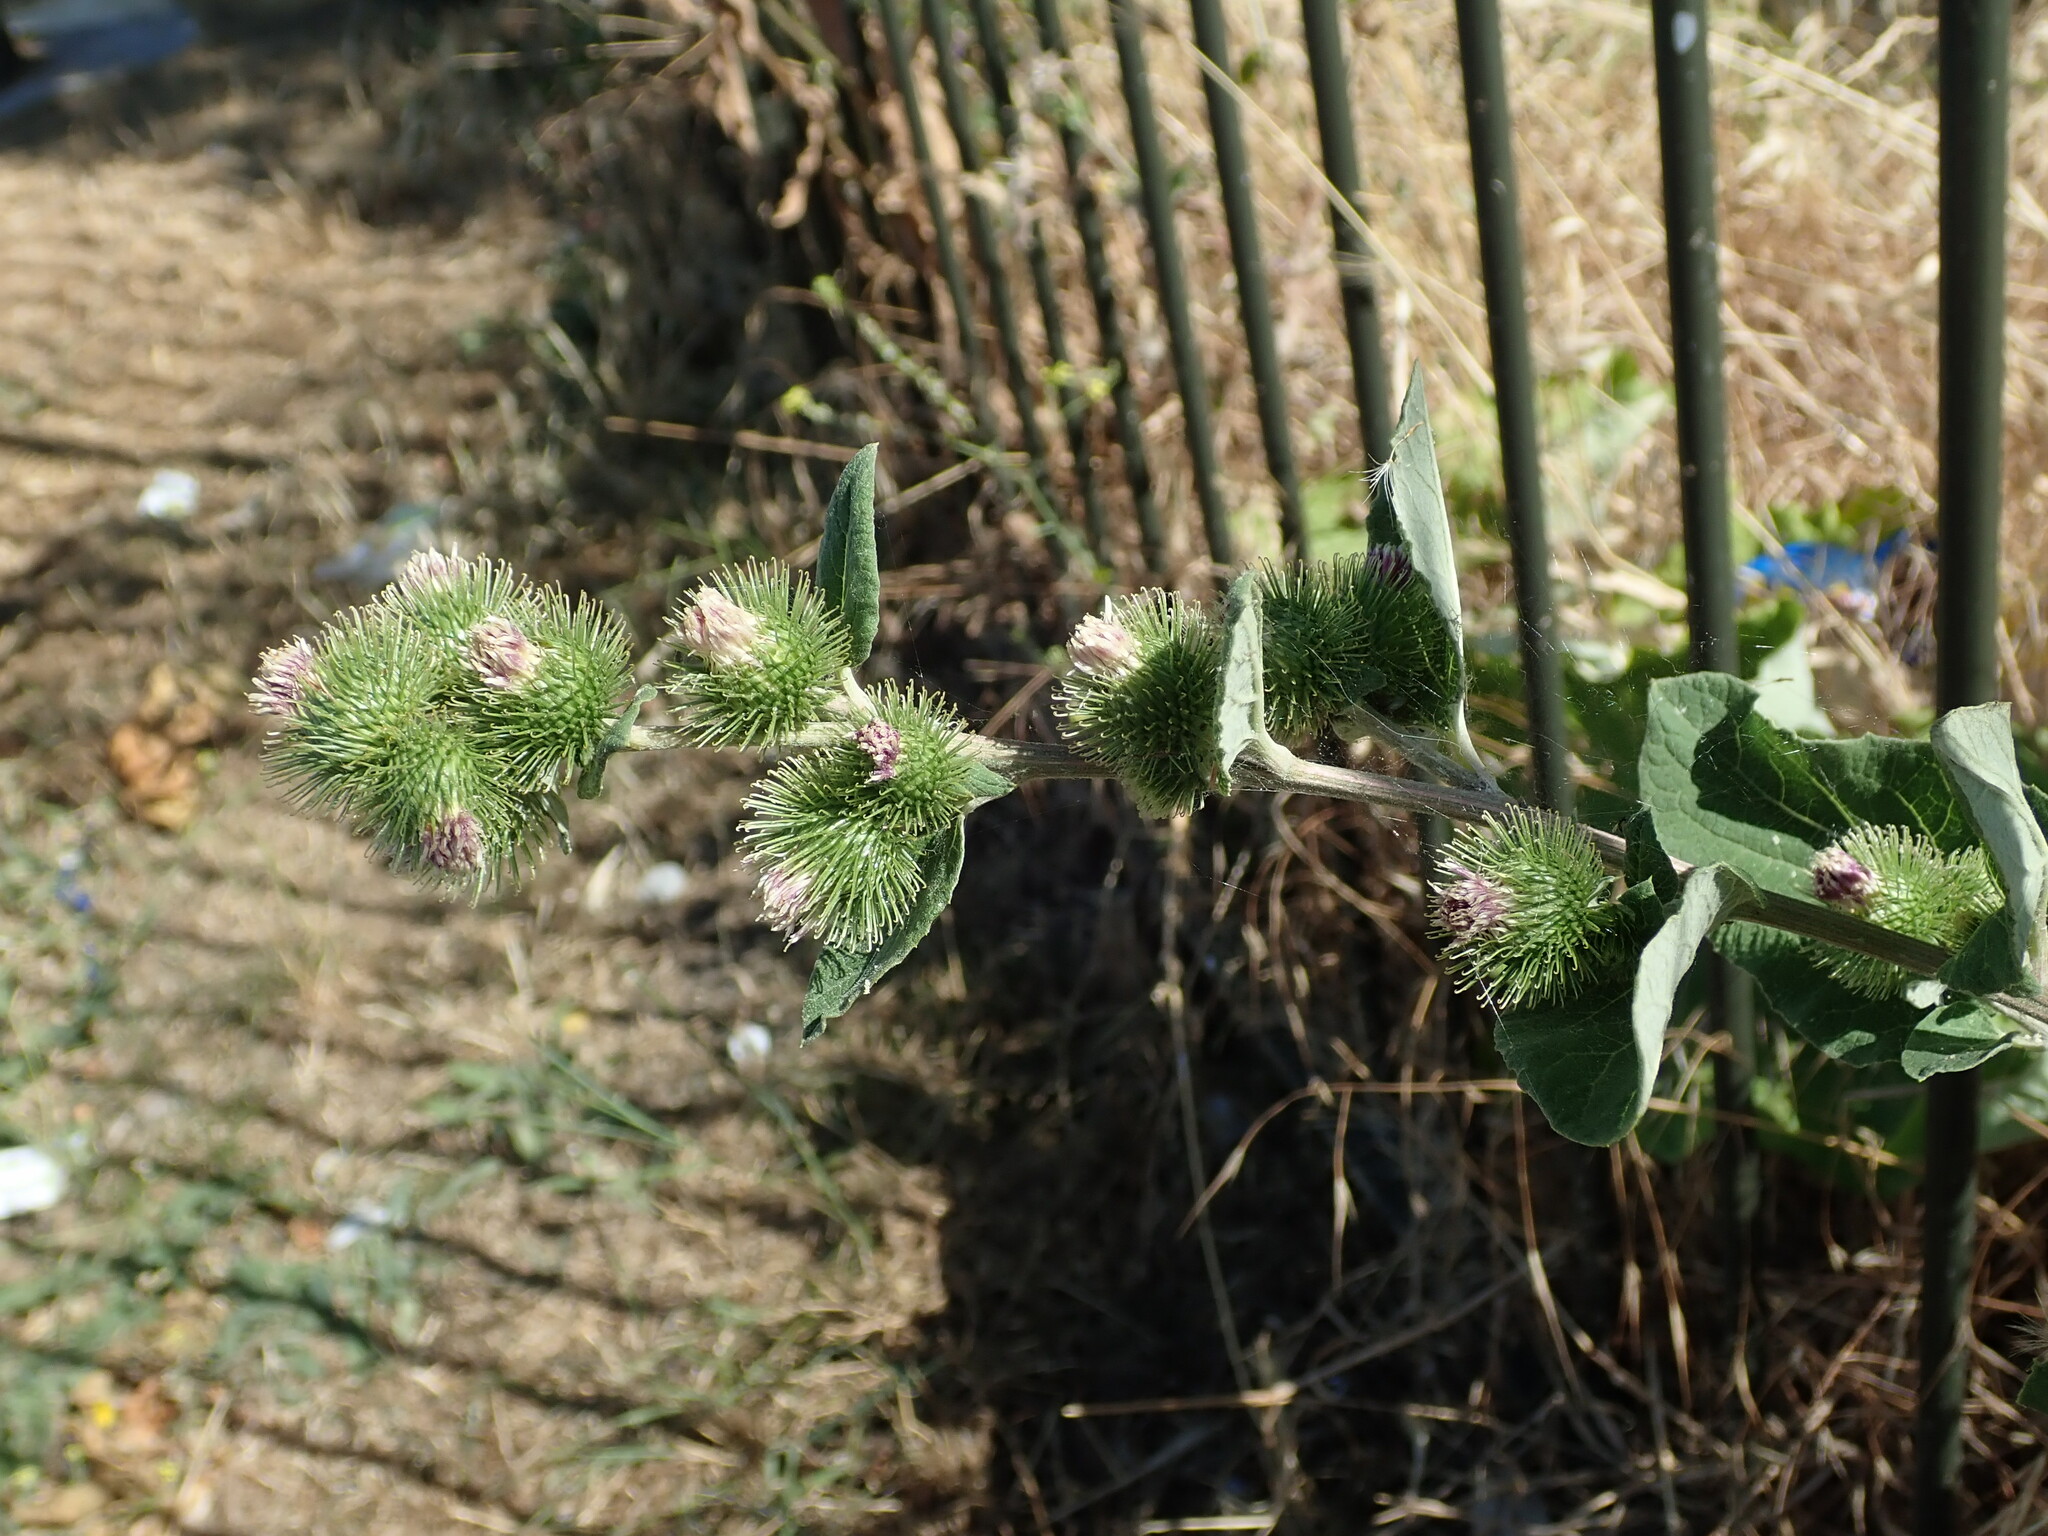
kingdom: Plantae
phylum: Tracheophyta
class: Magnoliopsida
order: Asterales
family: Asteraceae
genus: Arctium
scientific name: Arctium minus
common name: Lesser burdock
